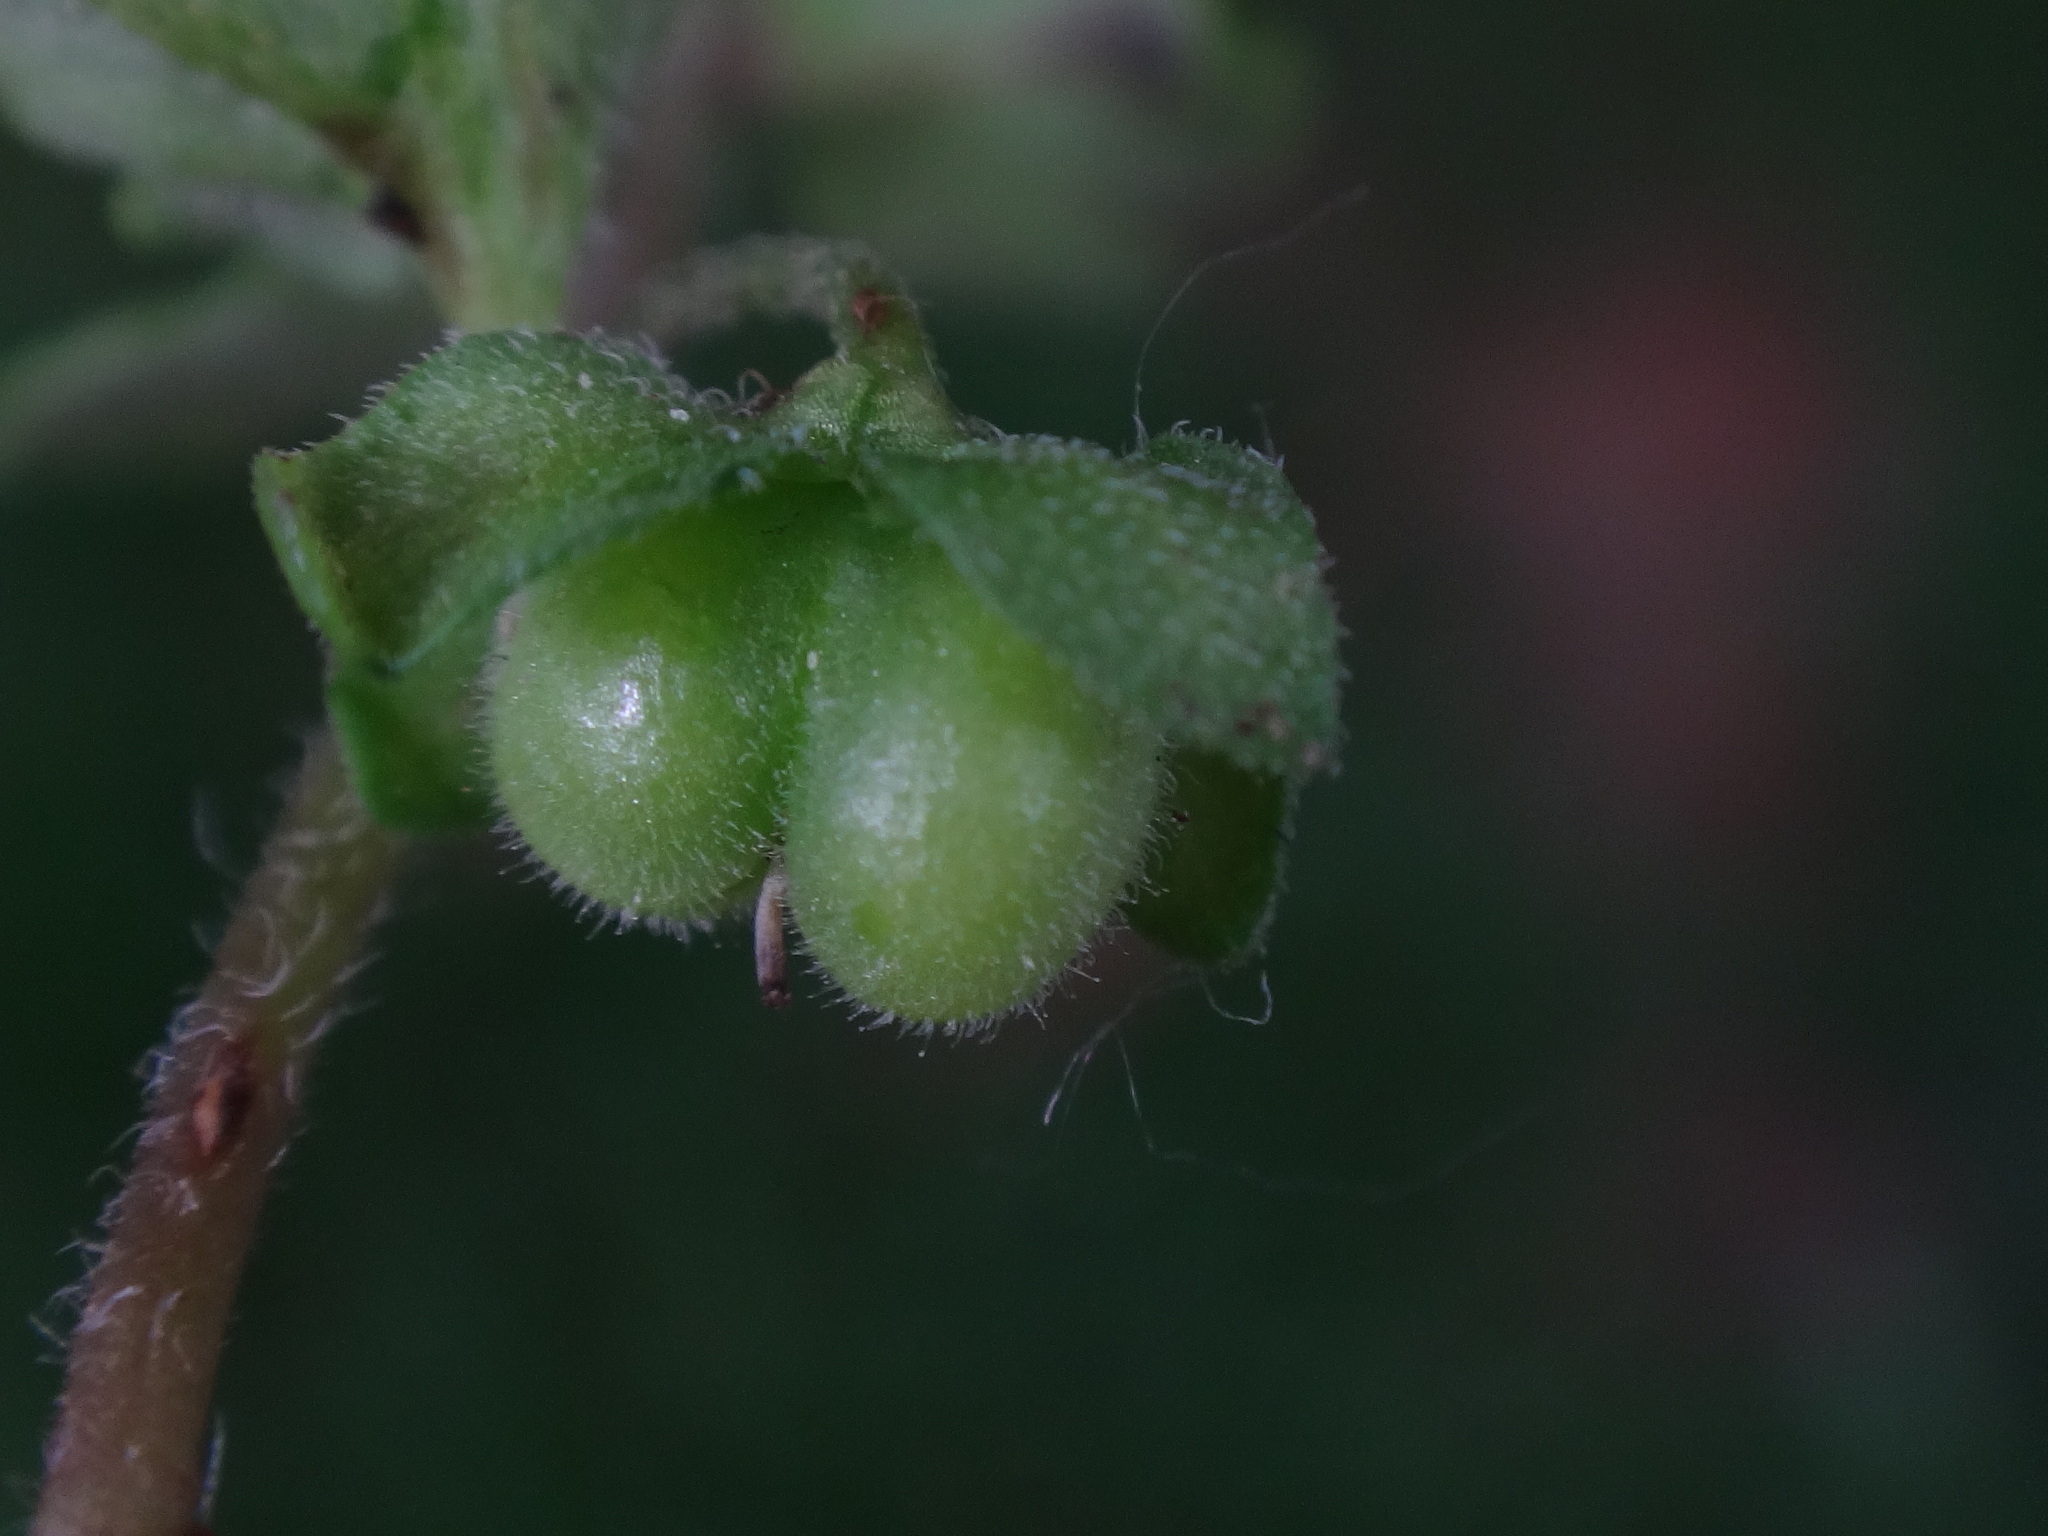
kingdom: Plantae
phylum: Tracheophyta
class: Magnoliopsida
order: Lamiales
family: Plantaginaceae
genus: Veronica
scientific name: Veronica polita
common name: Grey field-speedwell
